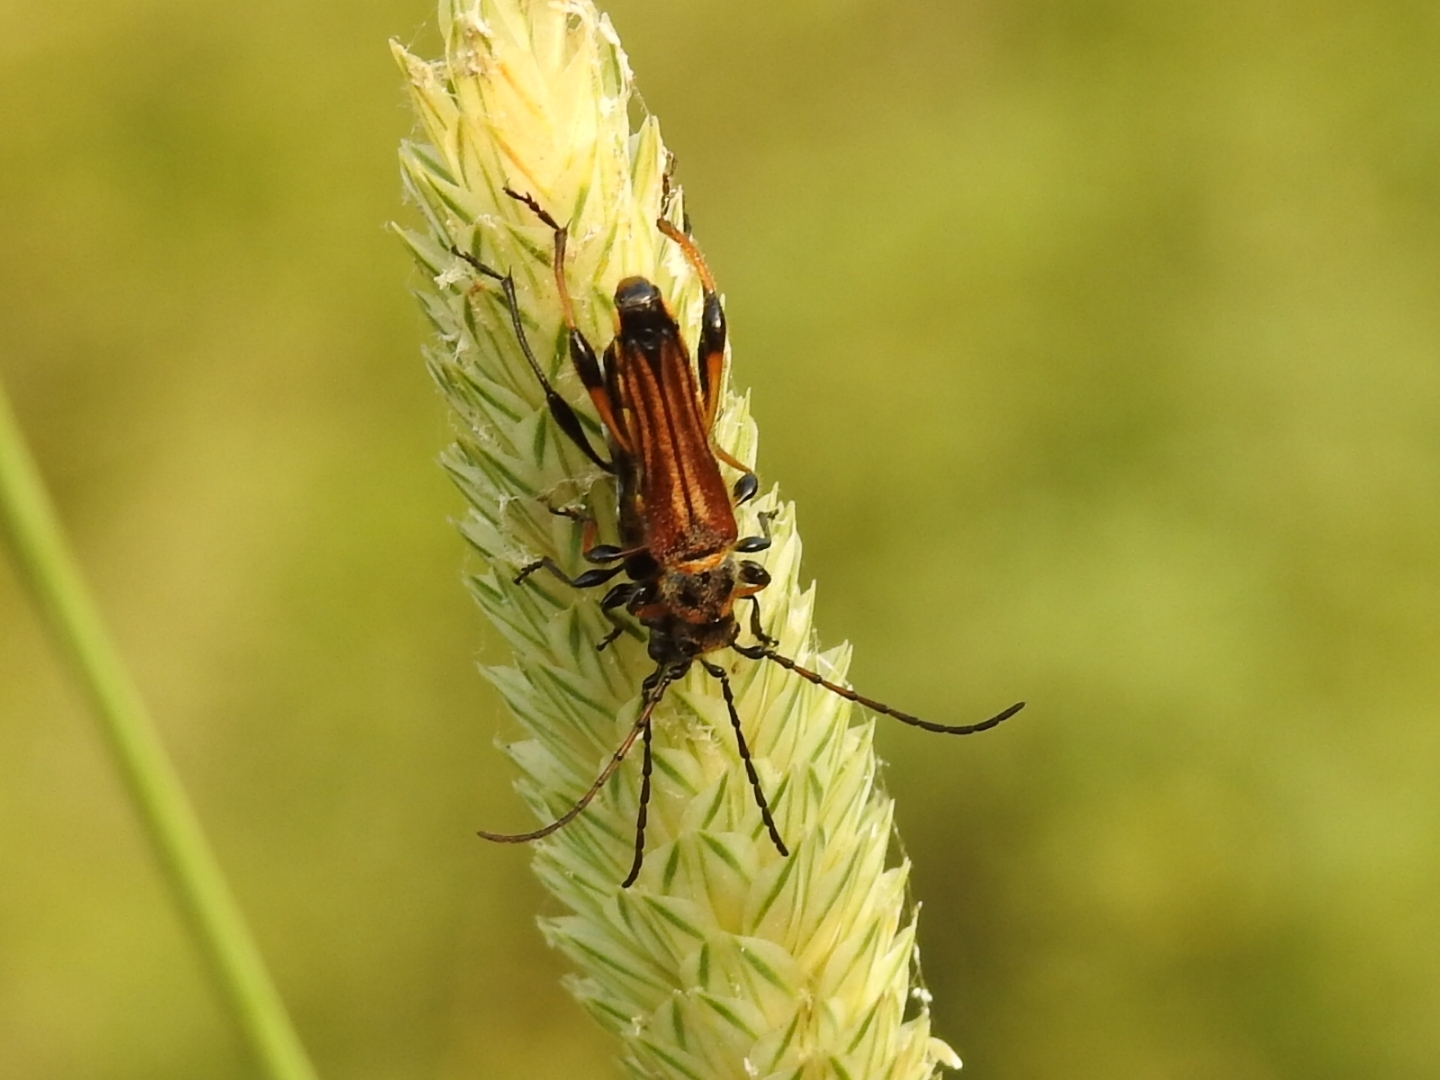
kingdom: Animalia
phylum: Arthropoda
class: Insecta
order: Coleoptera
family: Cerambycidae
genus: Stenopterus
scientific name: Stenopterus ater
